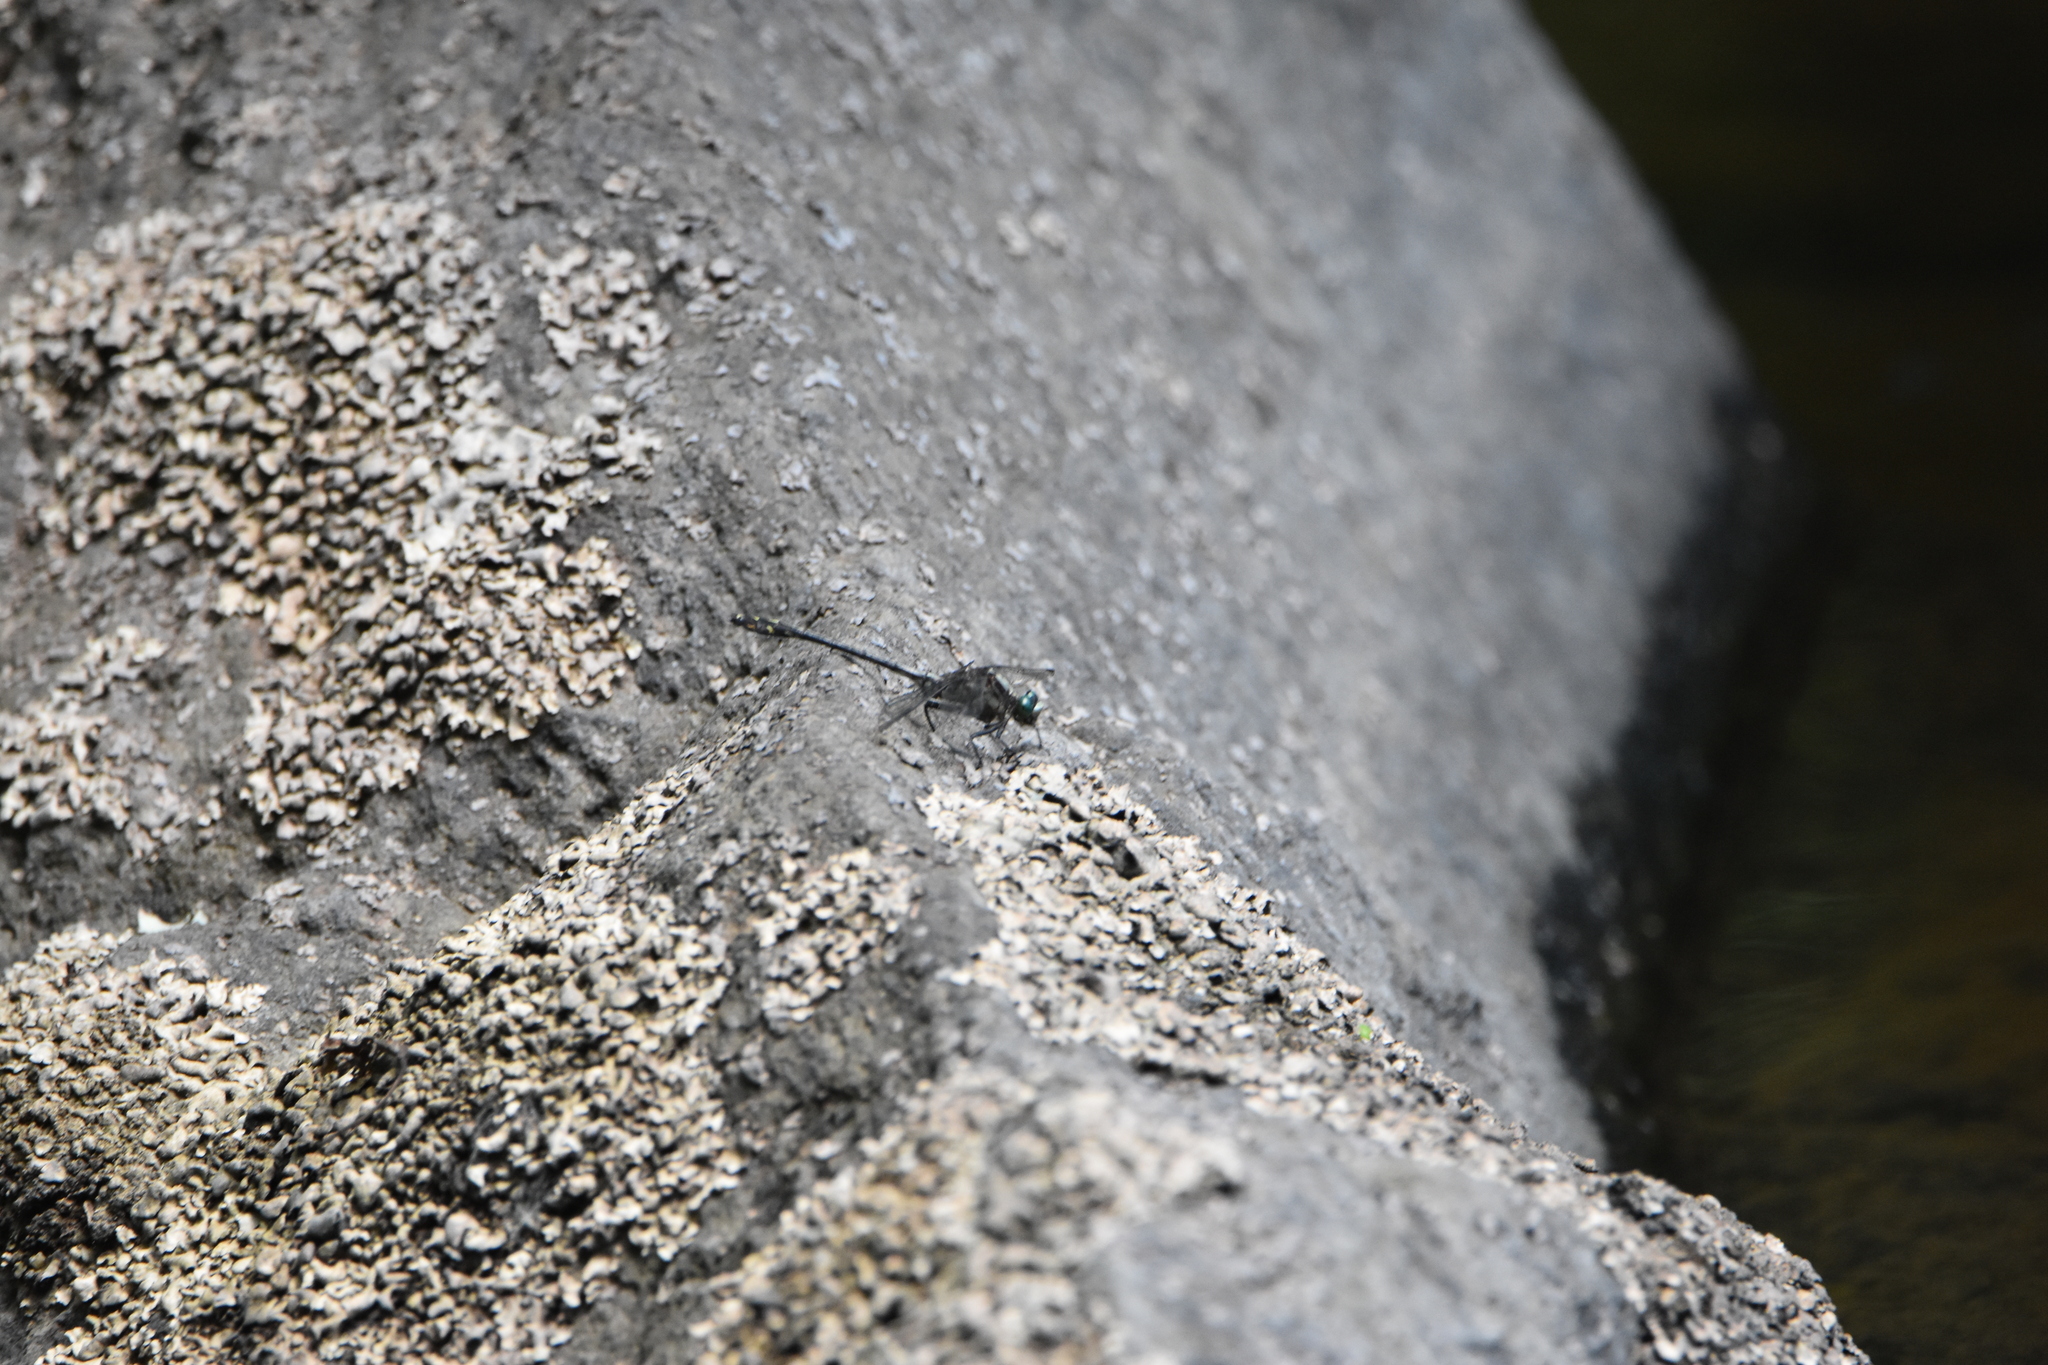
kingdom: Animalia
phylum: Arthropoda
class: Insecta
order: Odonata
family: Gomphidae
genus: Dromogomphus
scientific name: Dromogomphus spinosus
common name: Black-shouldered spinyleg
